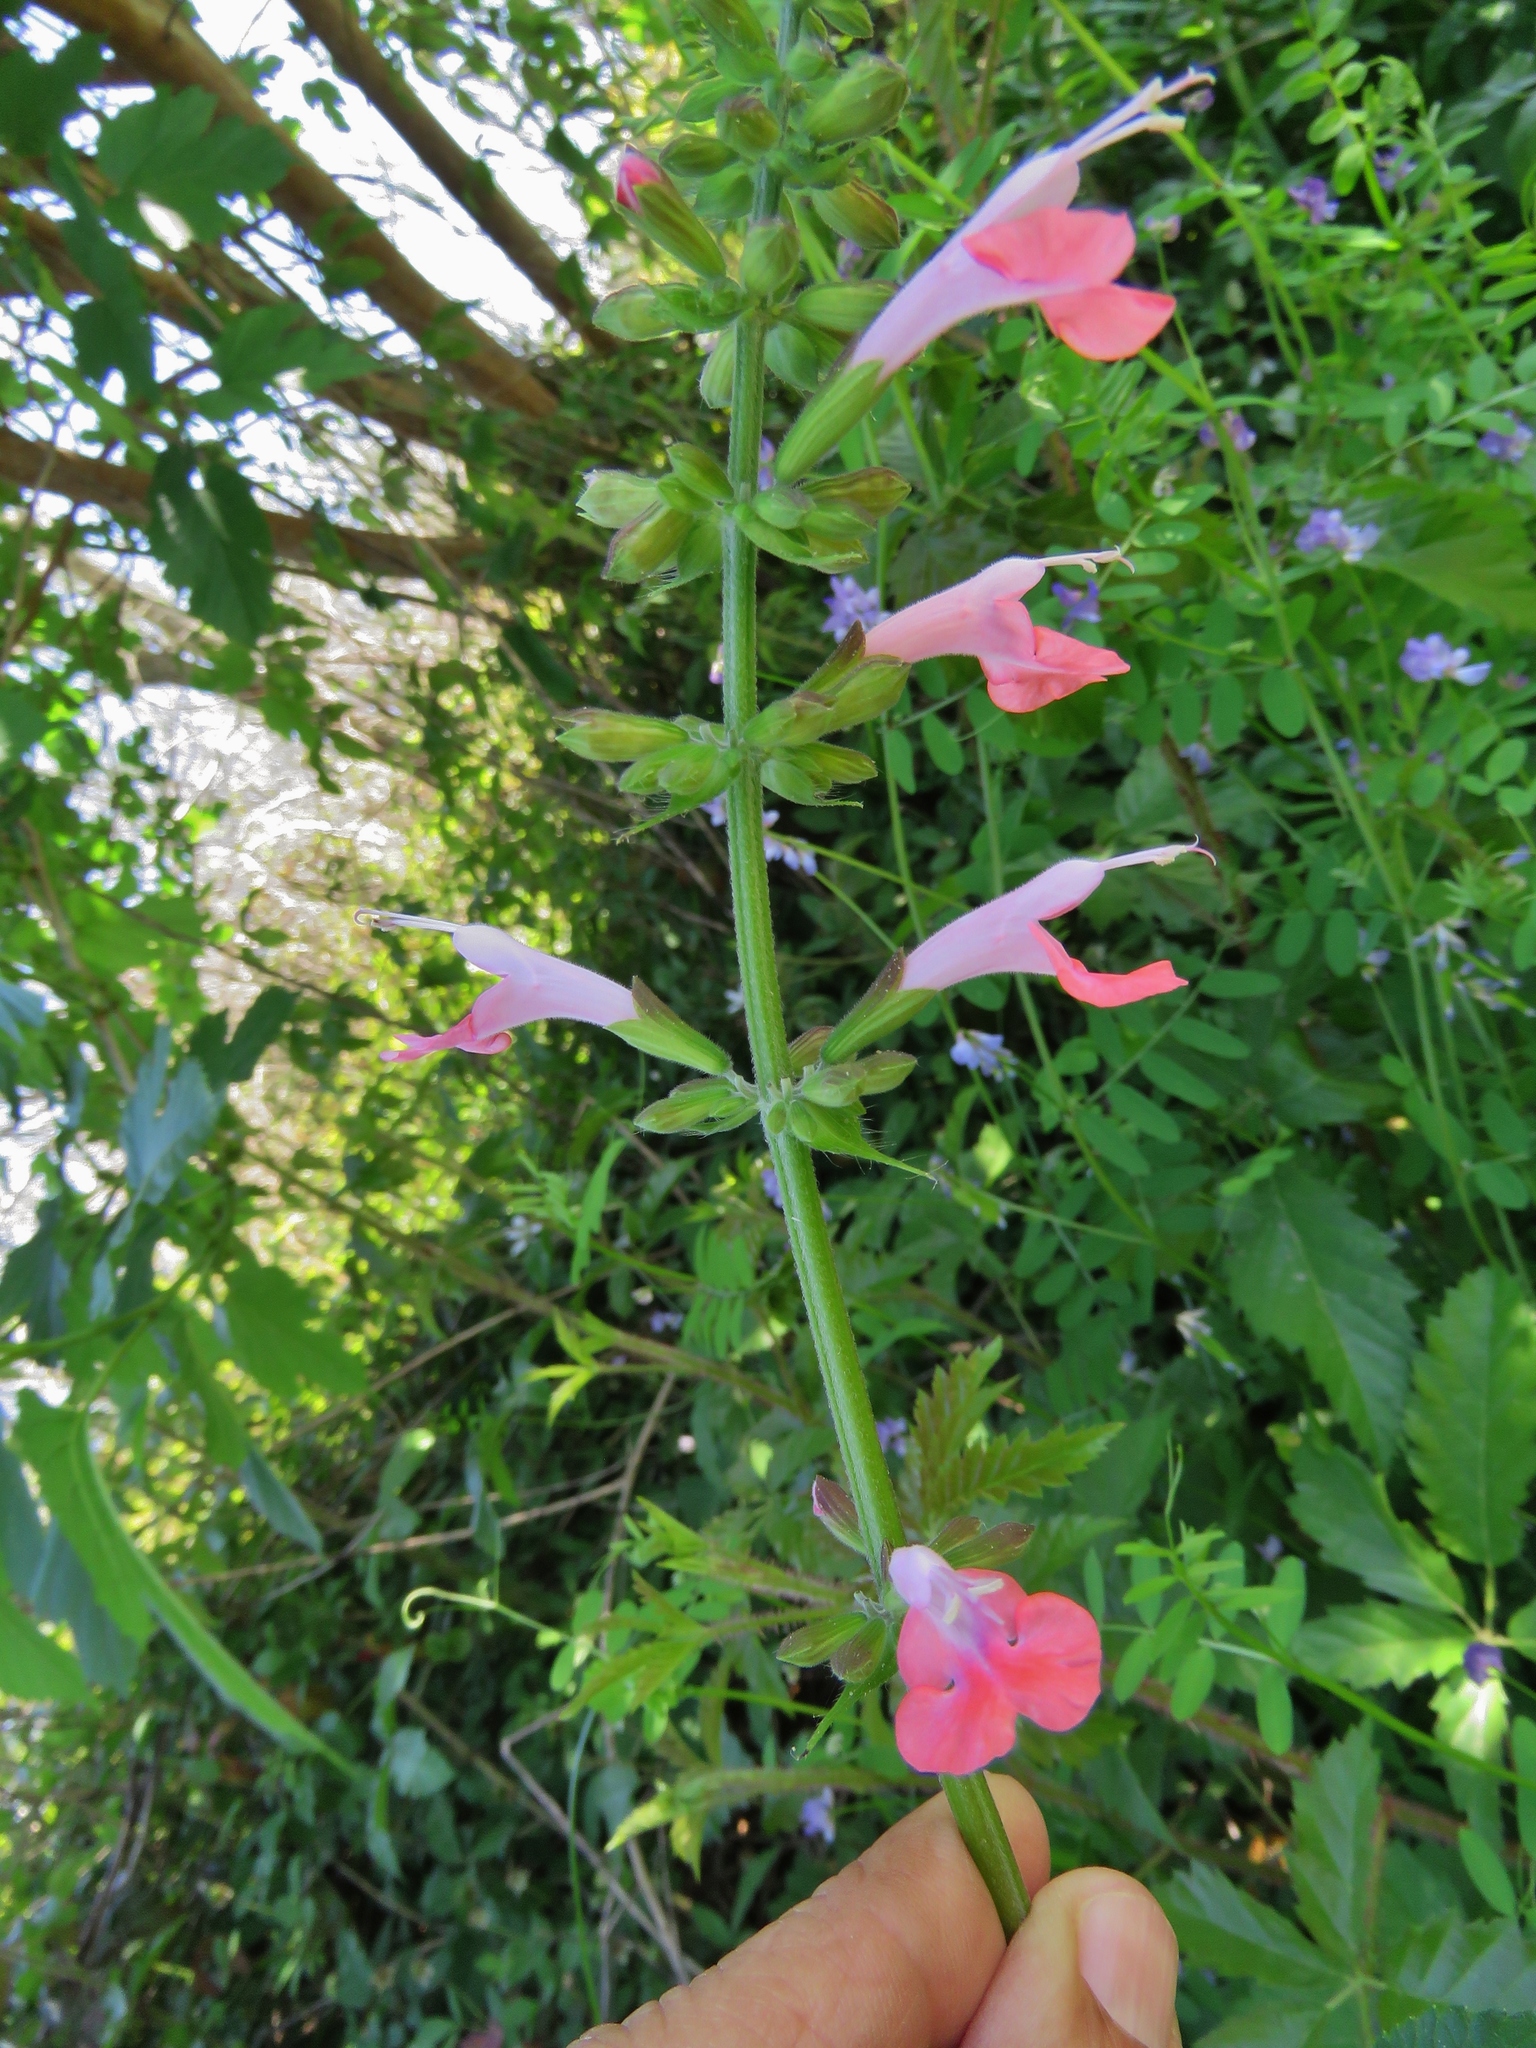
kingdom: Plantae
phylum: Tracheophyta
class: Magnoliopsida
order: Lamiales
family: Lamiaceae
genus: Salvia
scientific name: Salvia coccinea
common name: Blood sage
